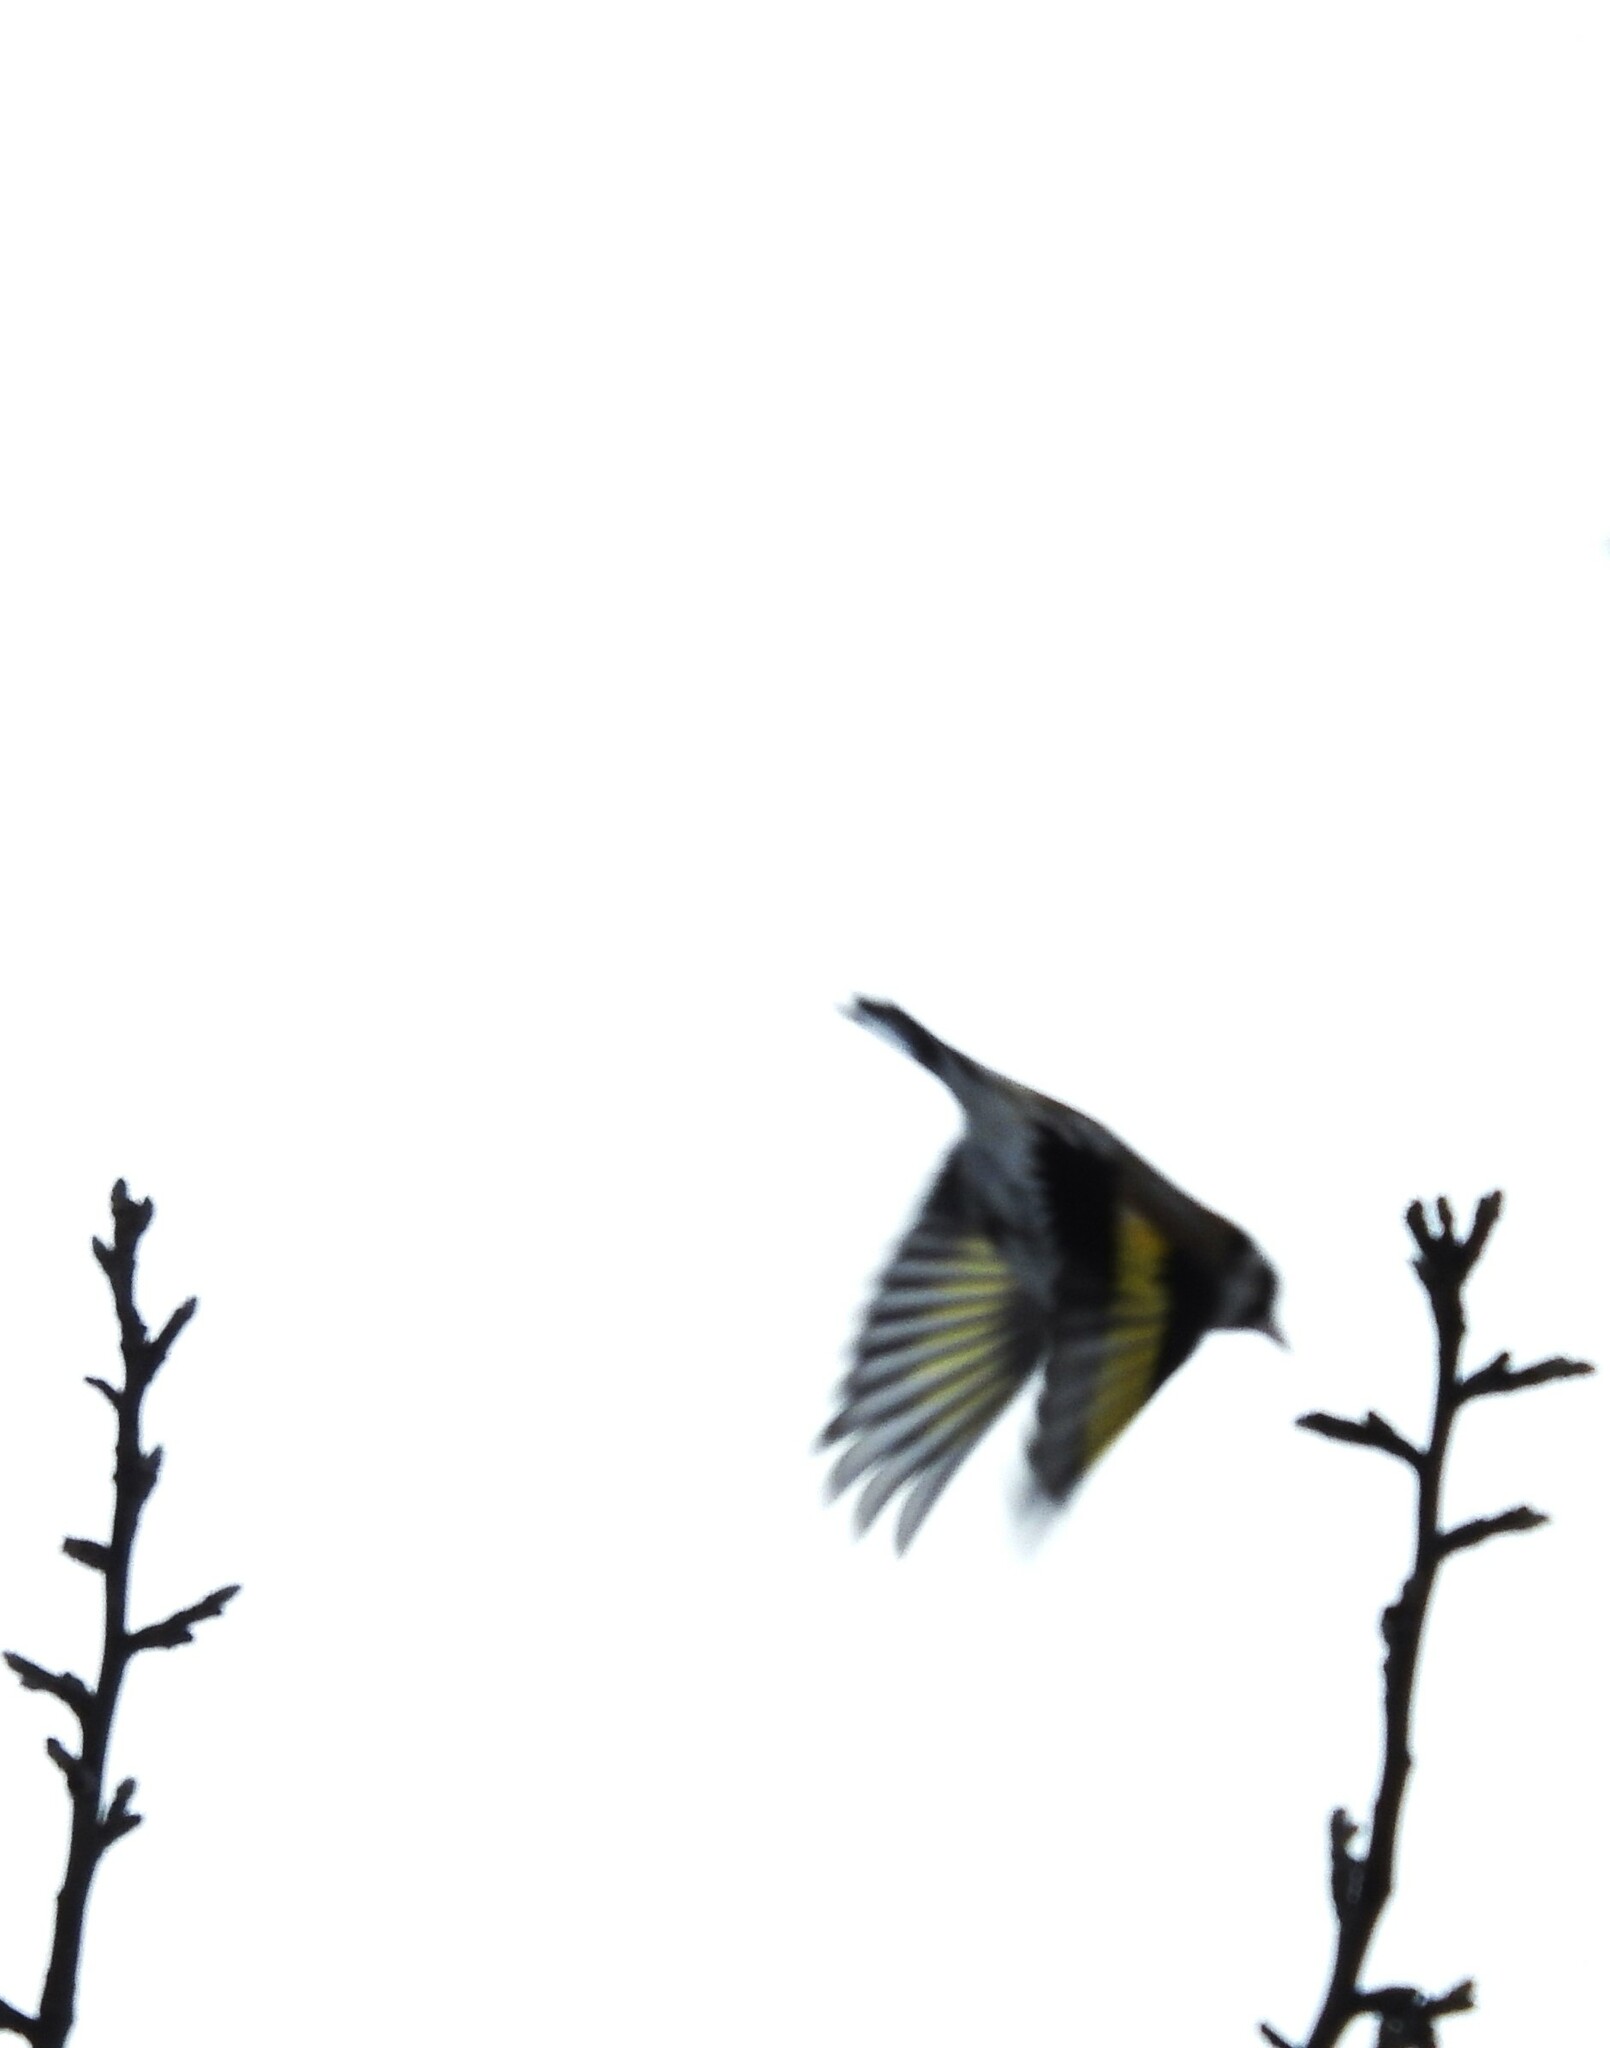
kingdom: Animalia
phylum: Chordata
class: Aves
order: Passeriformes
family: Fringillidae
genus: Carduelis
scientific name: Carduelis carduelis
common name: European goldfinch
